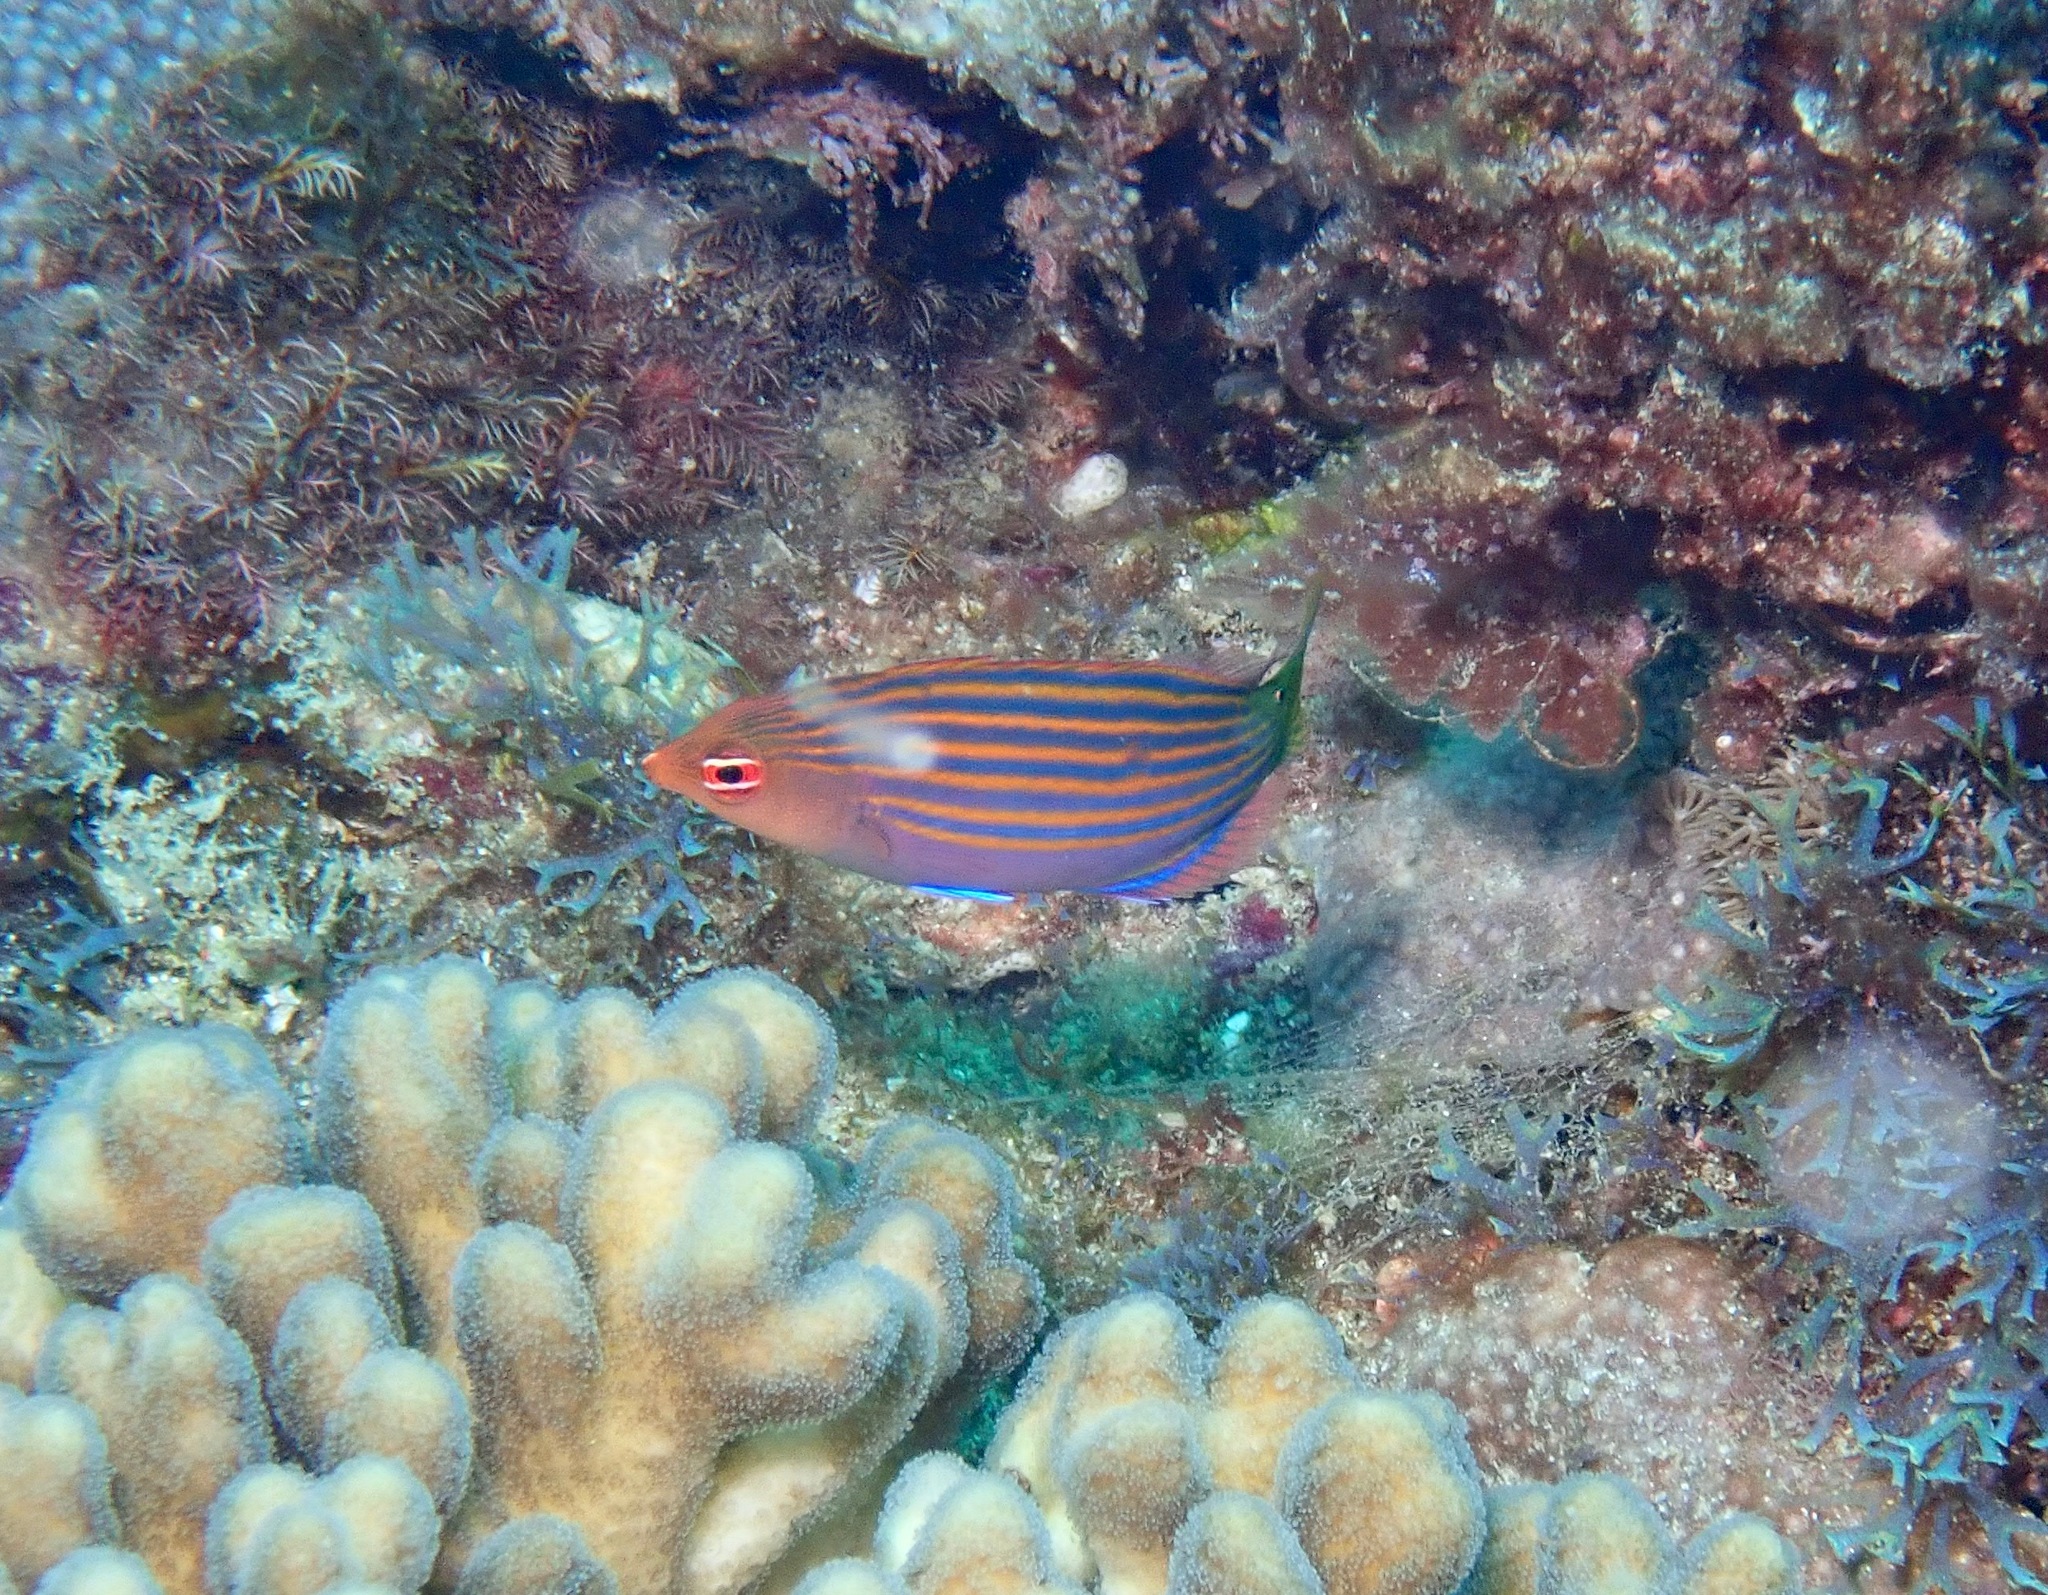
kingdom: Animalia
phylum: Chordata
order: Perciformes
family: Labridae
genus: Pseudocheilinus
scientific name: Pseudocheilinus hexataenia
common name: Sixline wrasse
